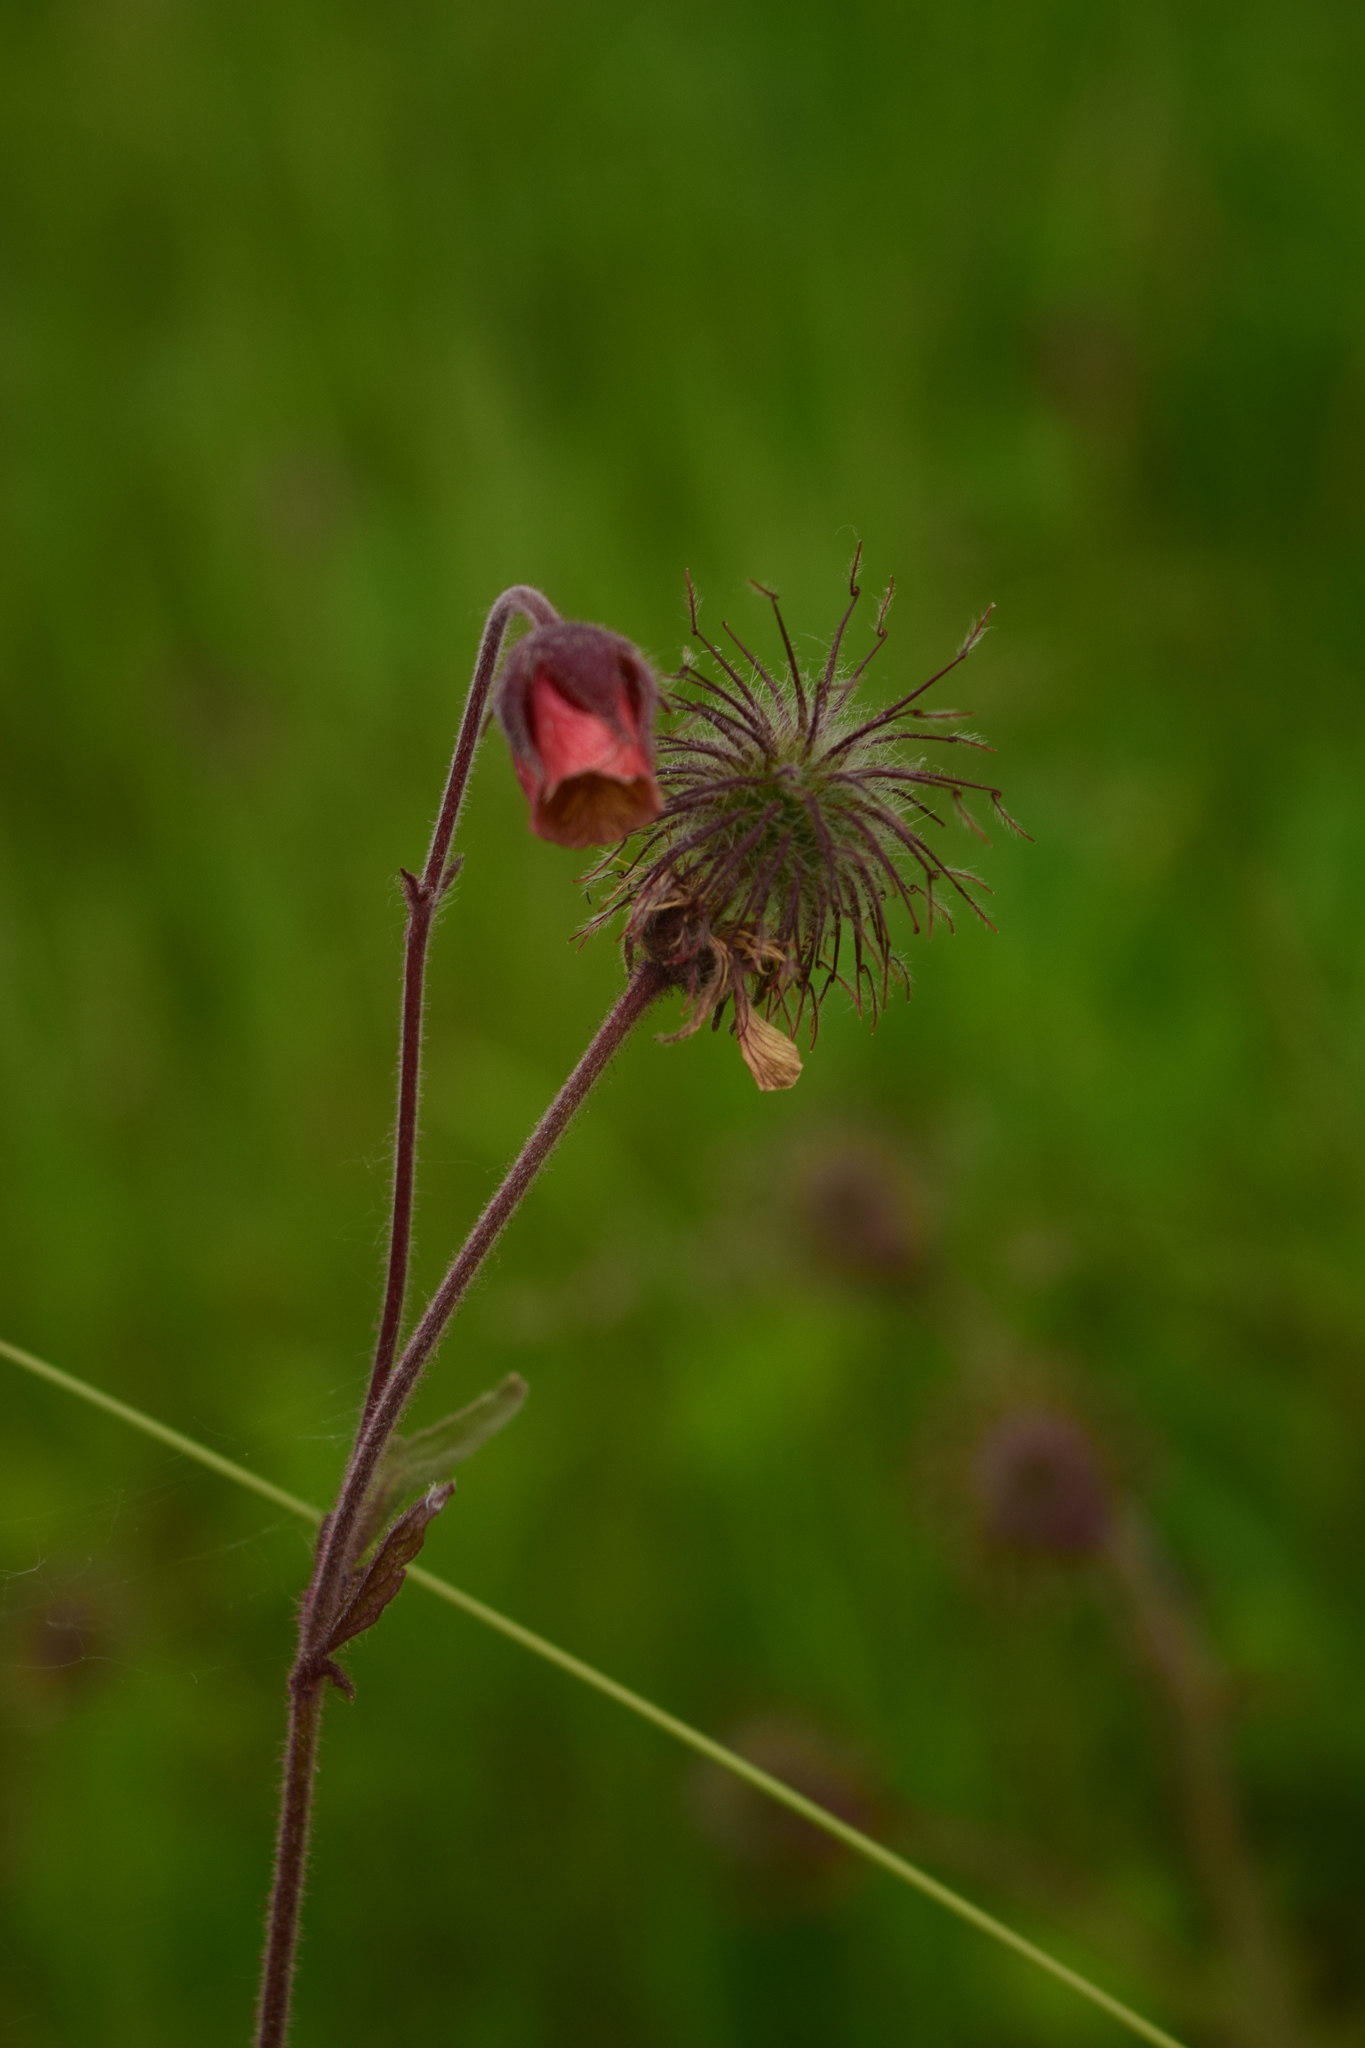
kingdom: Plantae
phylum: Tracheophyta
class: Magnoliopsida
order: Rosales
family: Rosaceae
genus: Geum
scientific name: Geum rivale
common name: Water avens
